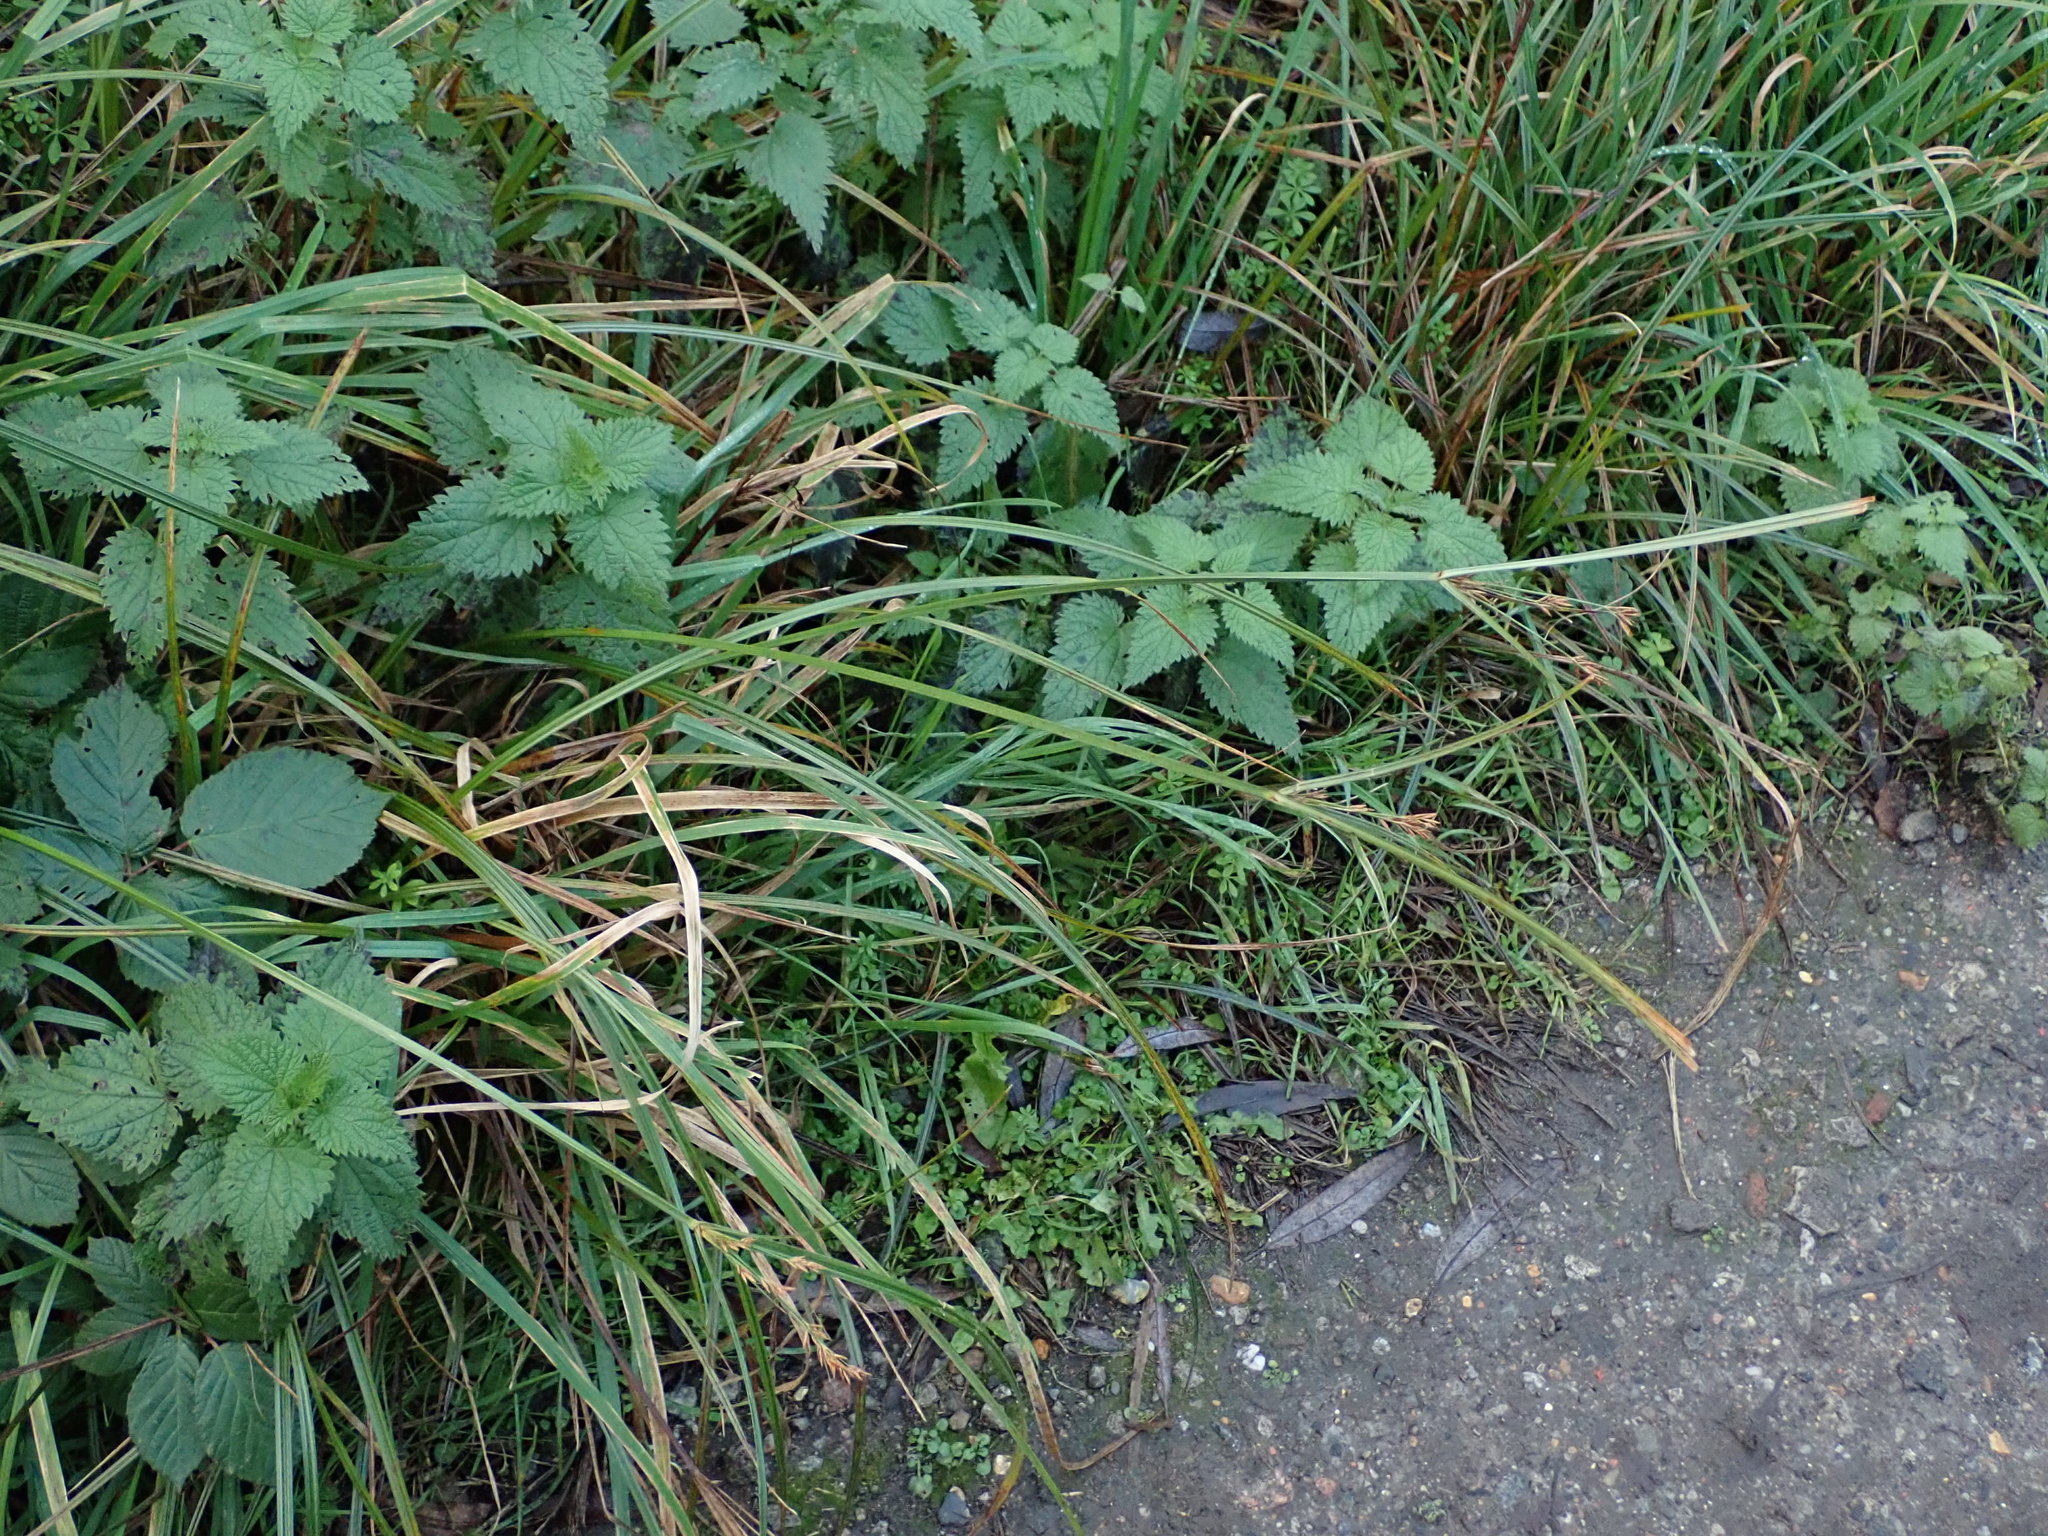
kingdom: Plantae
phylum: Tracheophyta
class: Liliopsida
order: Poales
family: Cyperaceae
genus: Cyperus
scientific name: Cyperus longus
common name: Galingale
